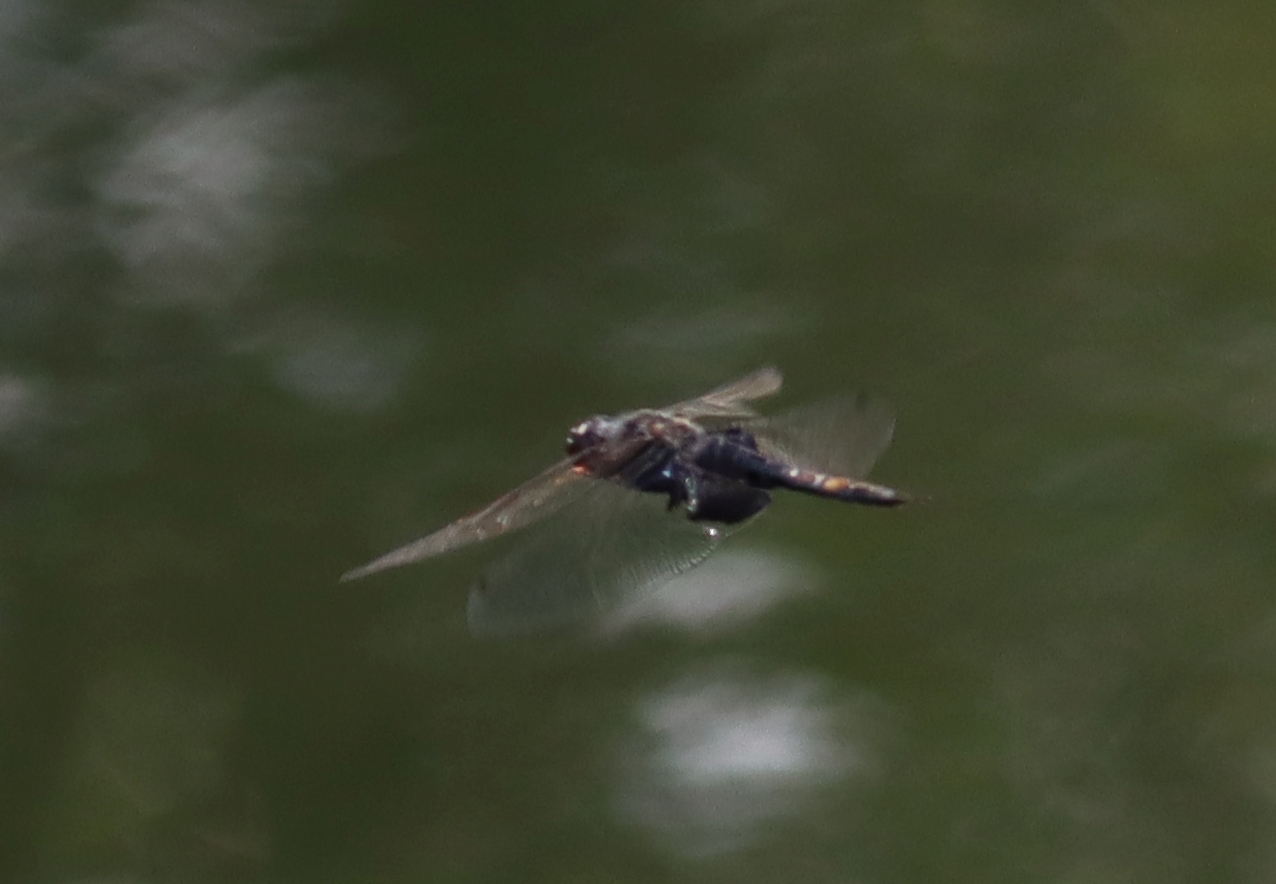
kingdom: Animalia
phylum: Arthropoda
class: Insecta
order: Odonata
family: Libellulidae
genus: Tramea
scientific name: Tramea lacerata
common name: Black saddlebags
